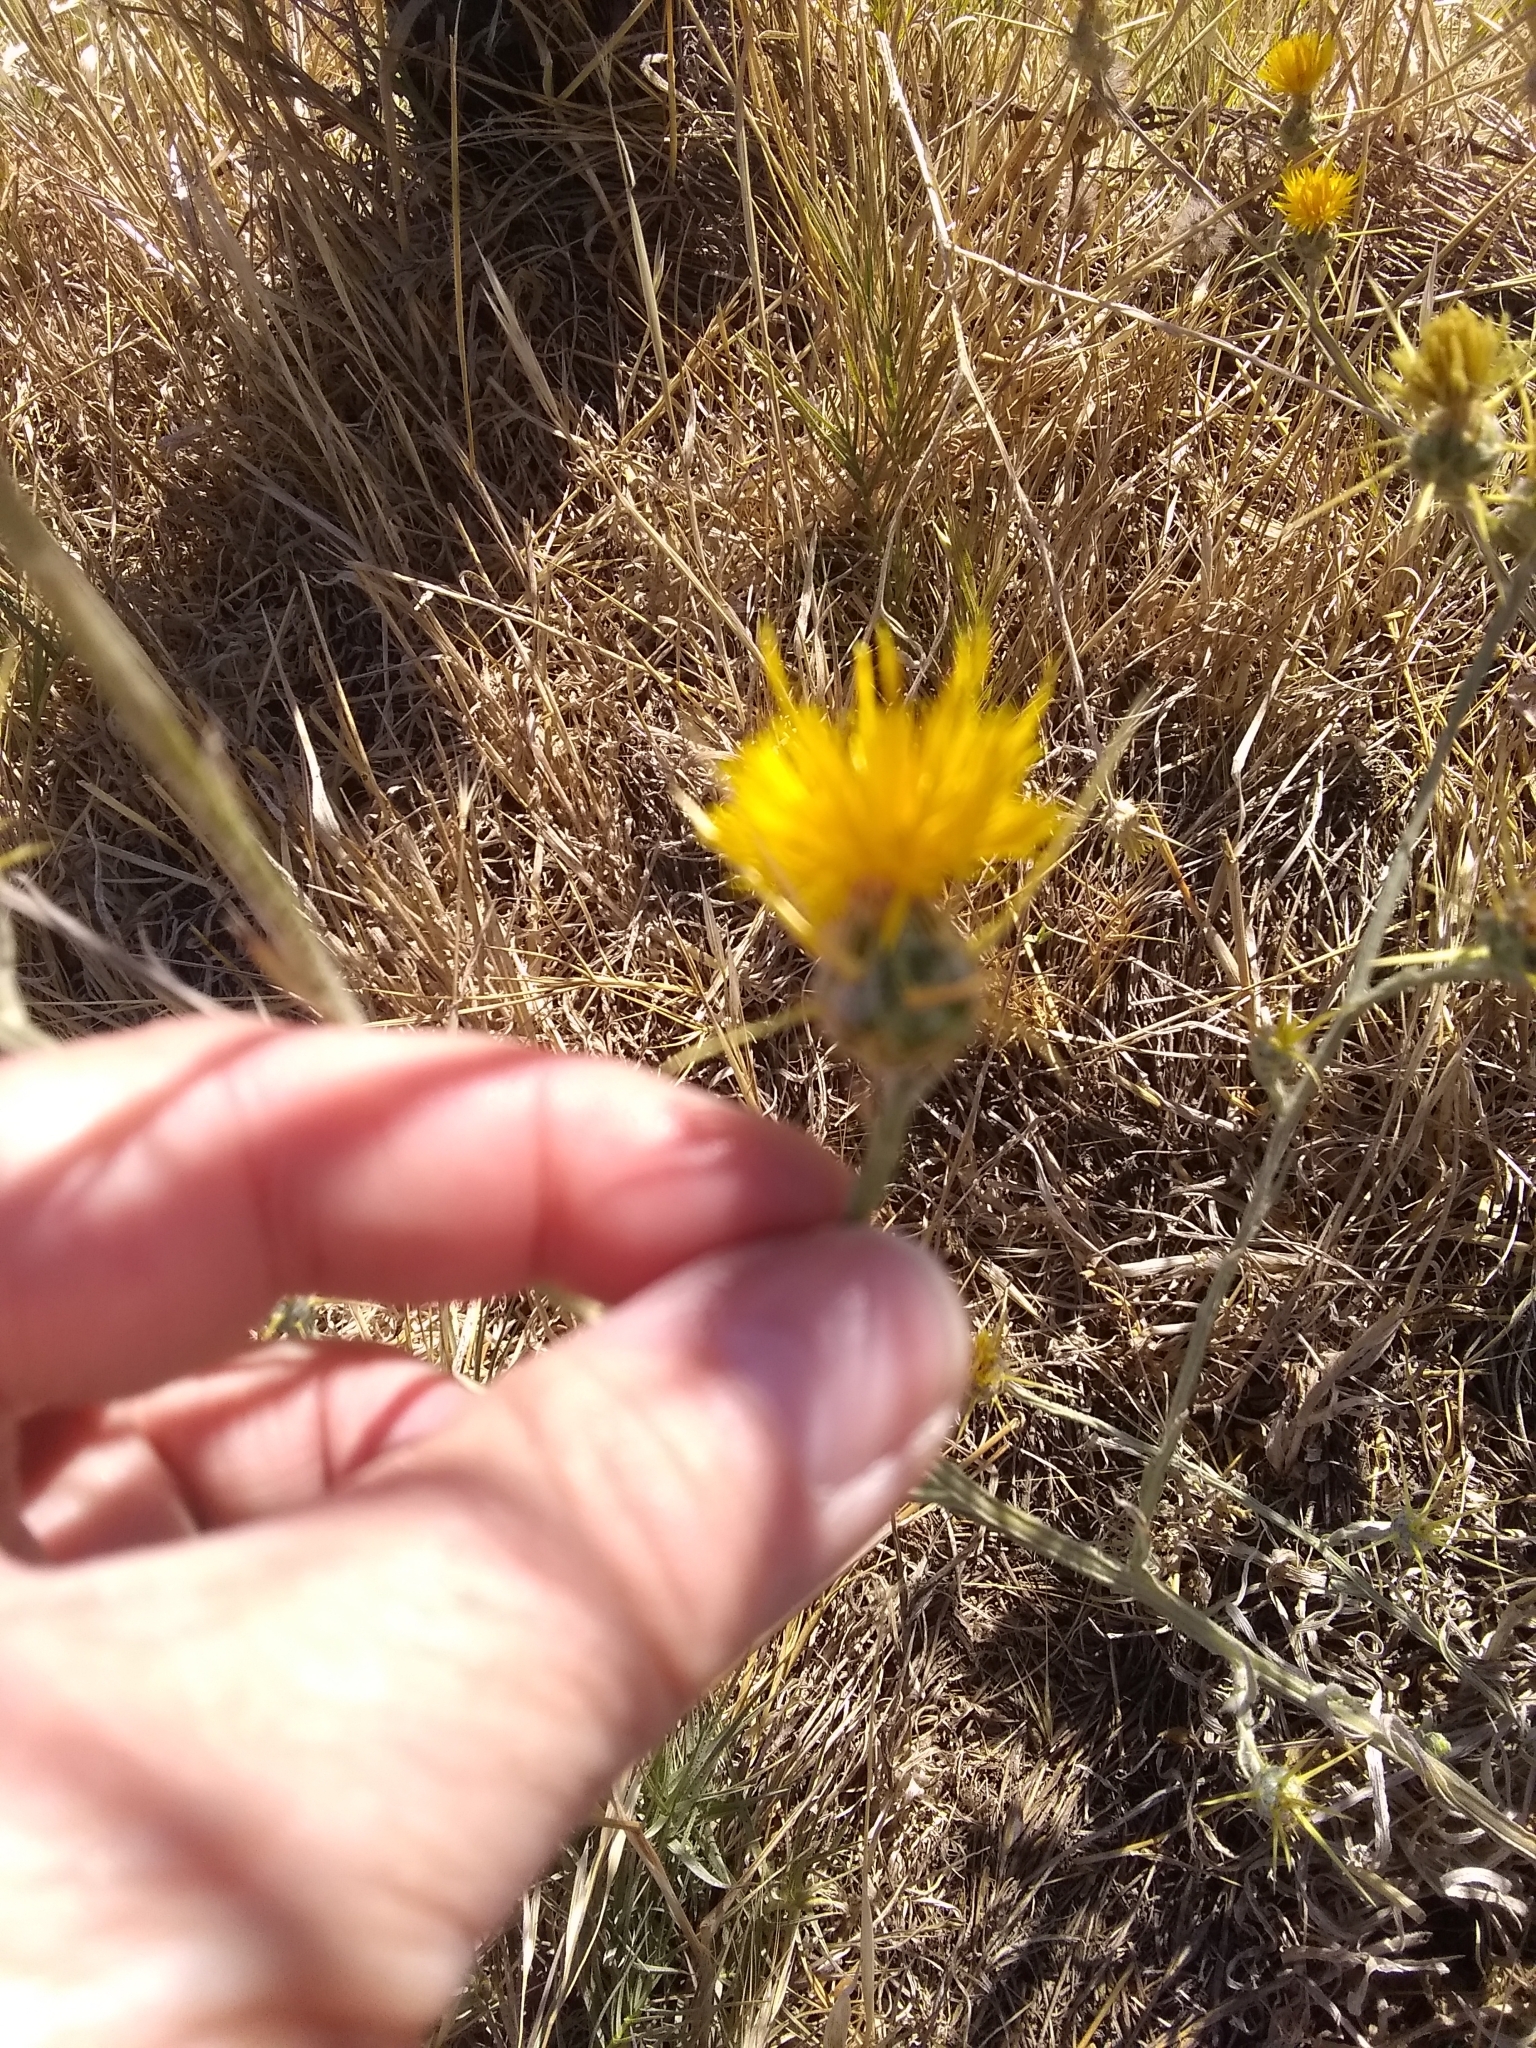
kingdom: Plantae
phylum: Tracheophyta
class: Magnoliopsida
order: Asterales
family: Asteraceae
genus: Centaurea
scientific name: Centaurea solstitialis
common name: Yellow star-thistle
